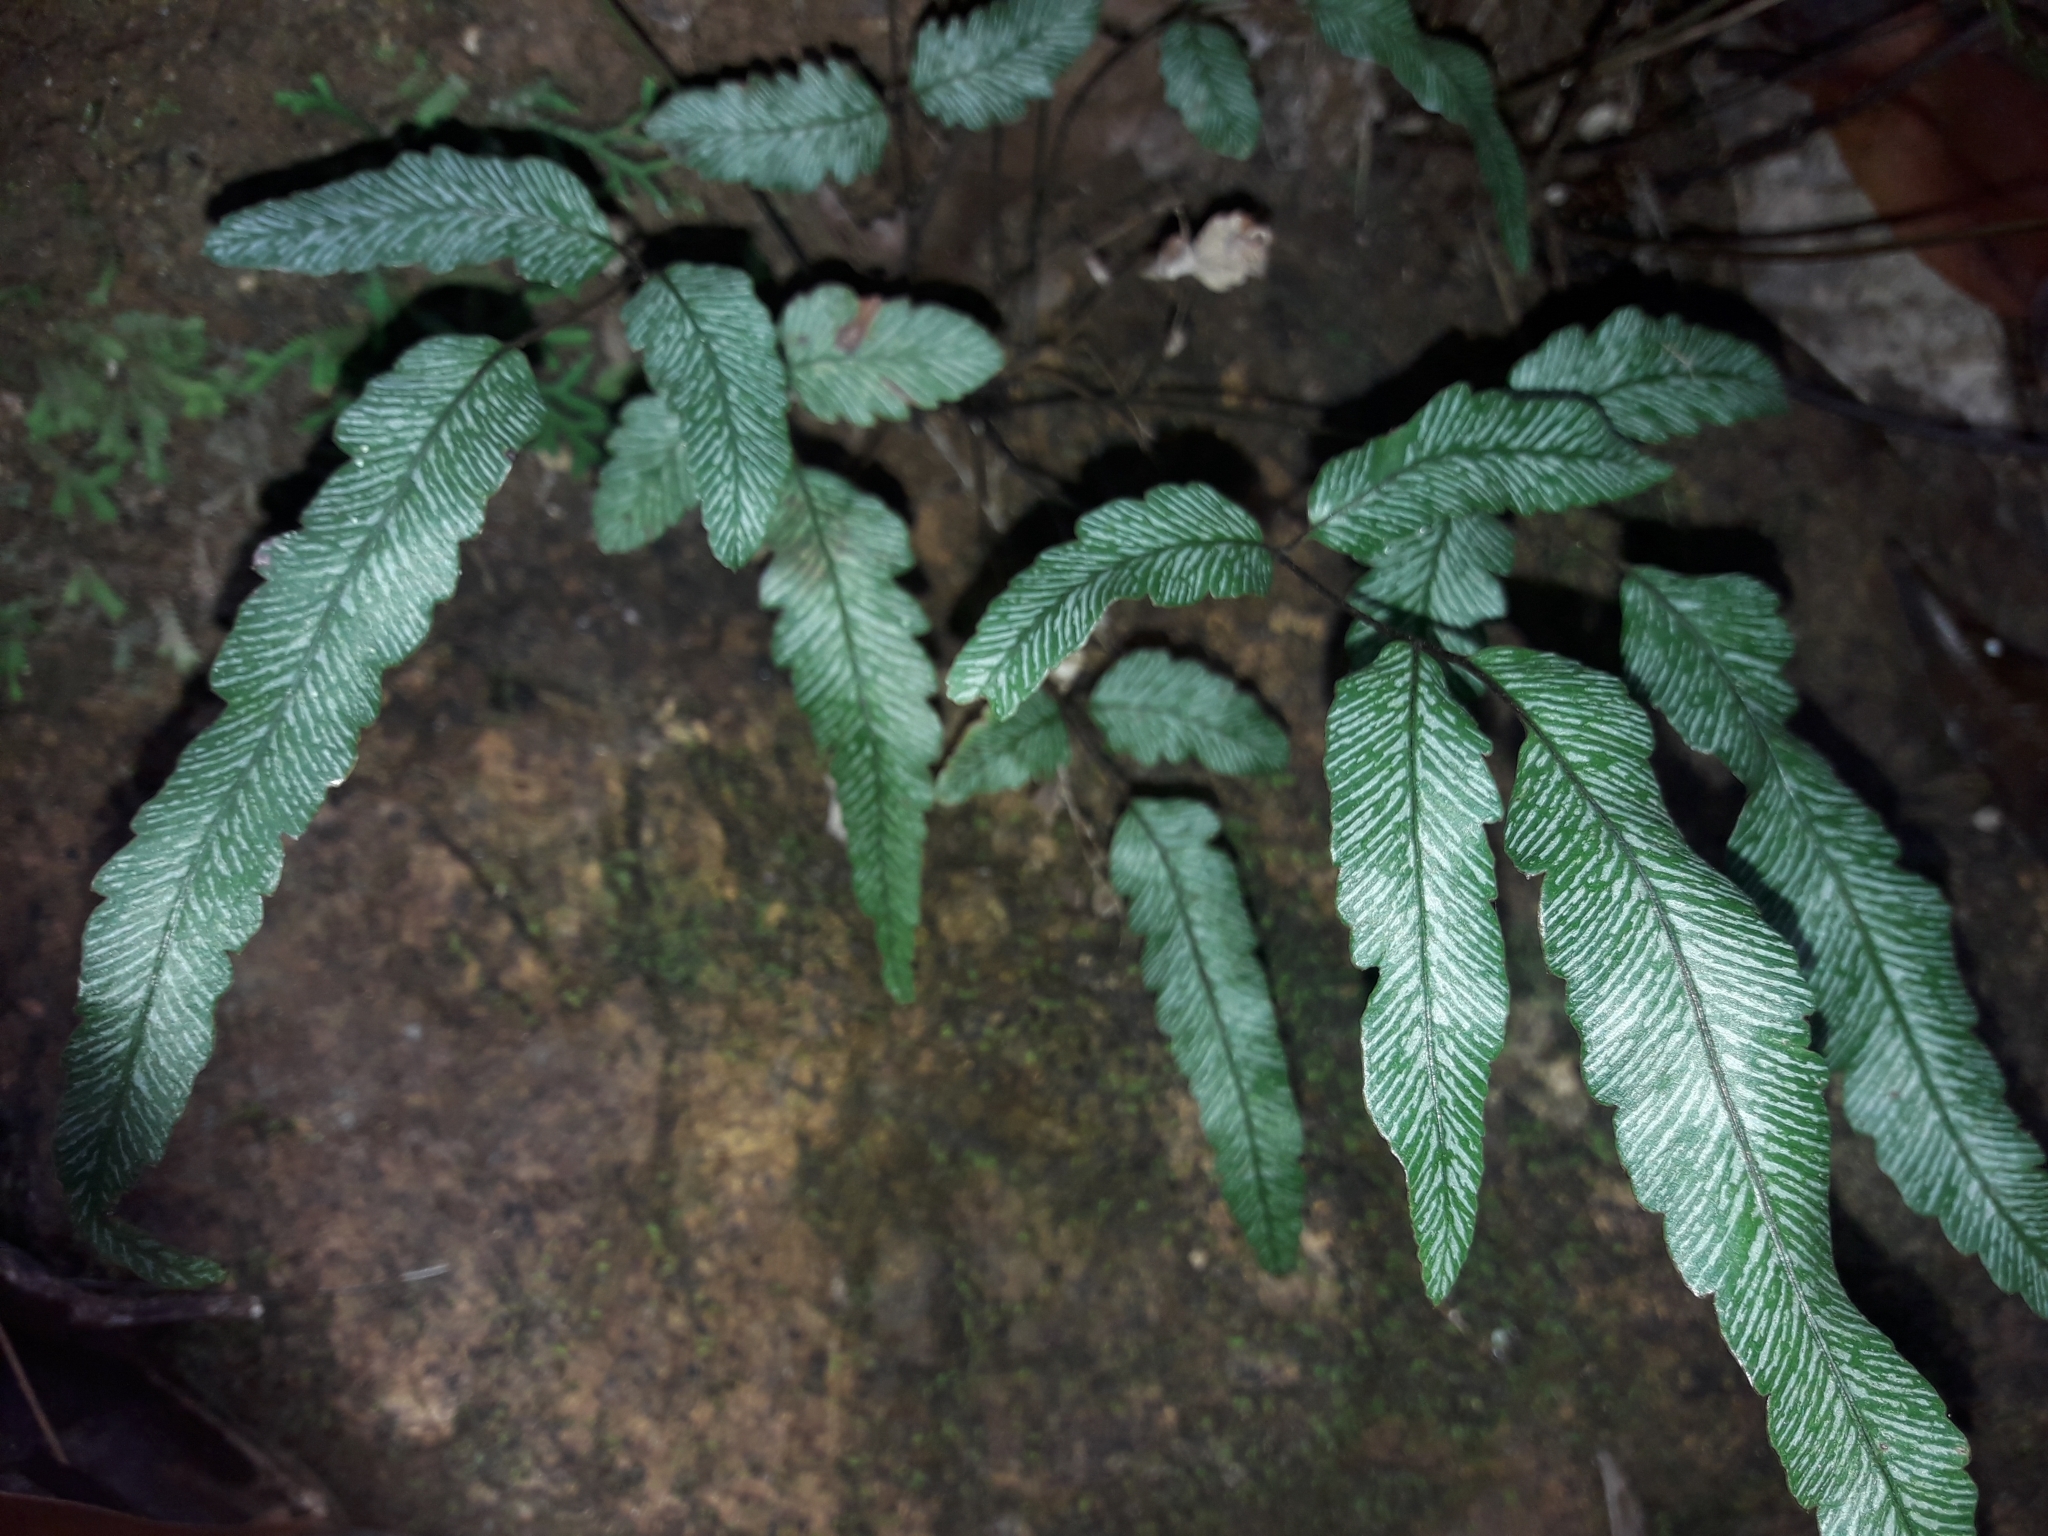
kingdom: Plantae
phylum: Tracheophyta
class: Polypodiopsida
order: Polypodiales
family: Pteridaceae
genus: Pteris
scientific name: Pteris balansae
